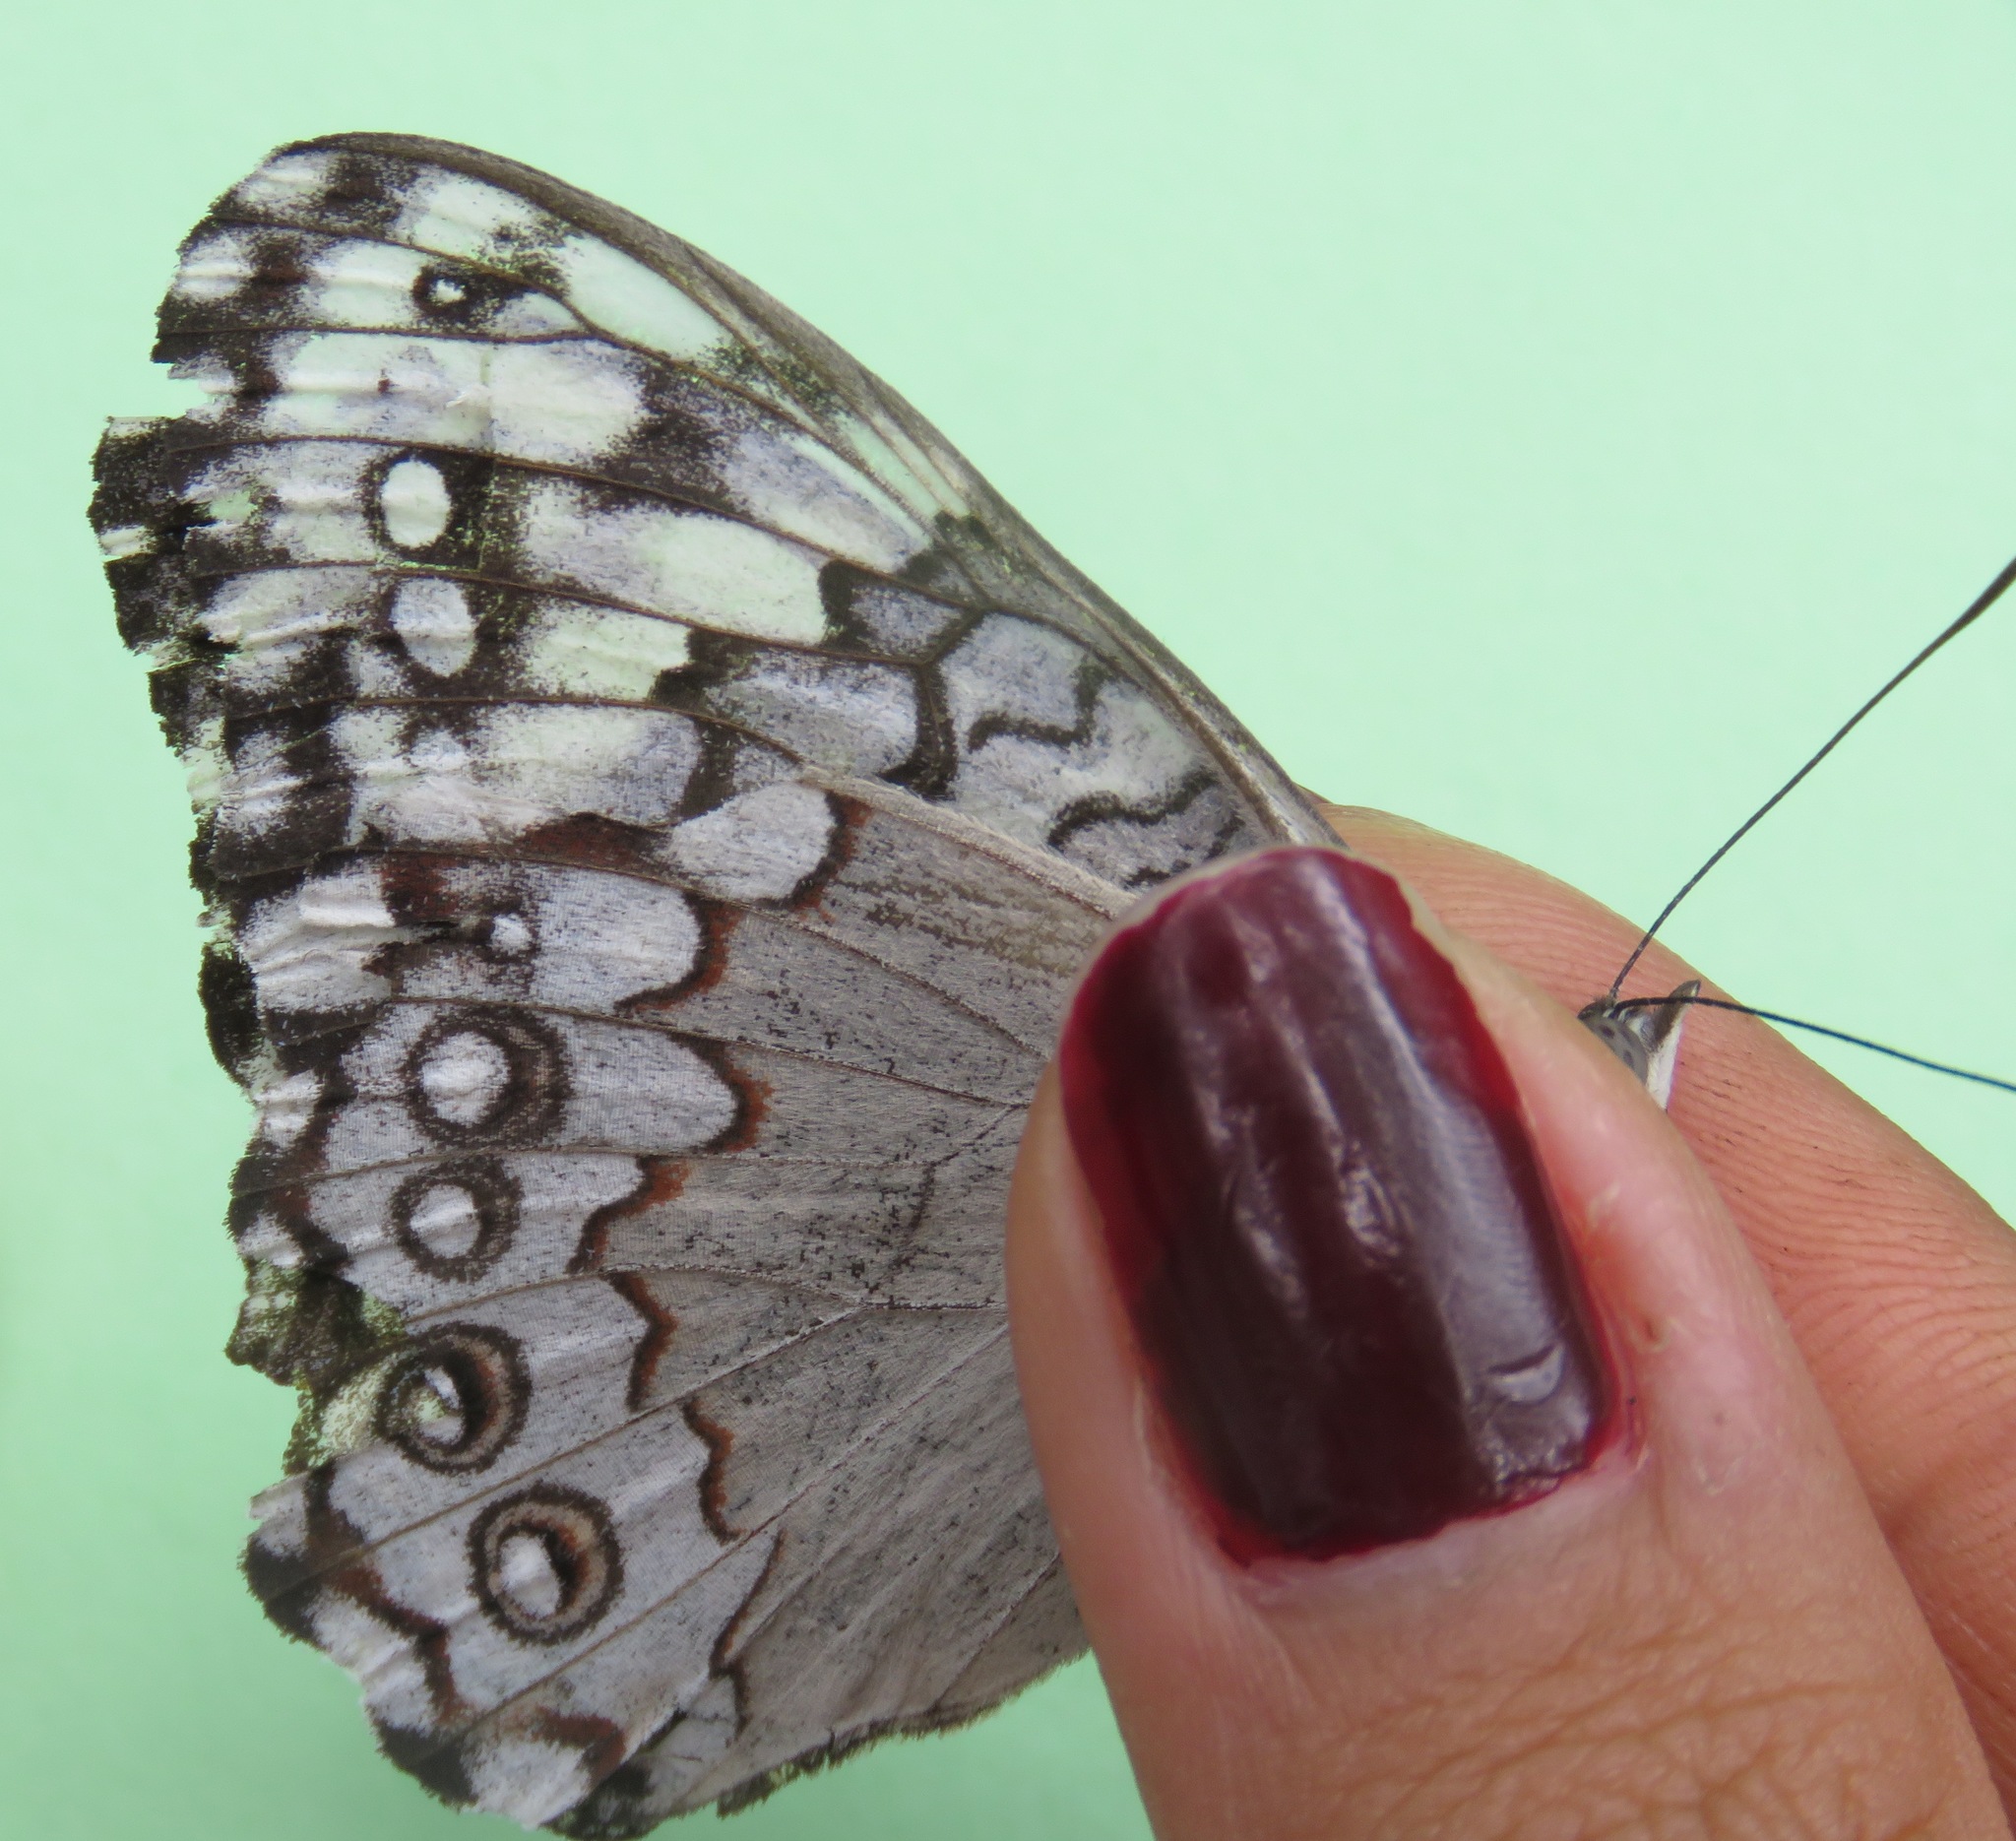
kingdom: Animalia
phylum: Arthropoda
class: Insecta
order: Lepidoptera
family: Nymphalidae
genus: Hamadryas
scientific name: Hamadryas glauconome
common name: Glaucous cracker
